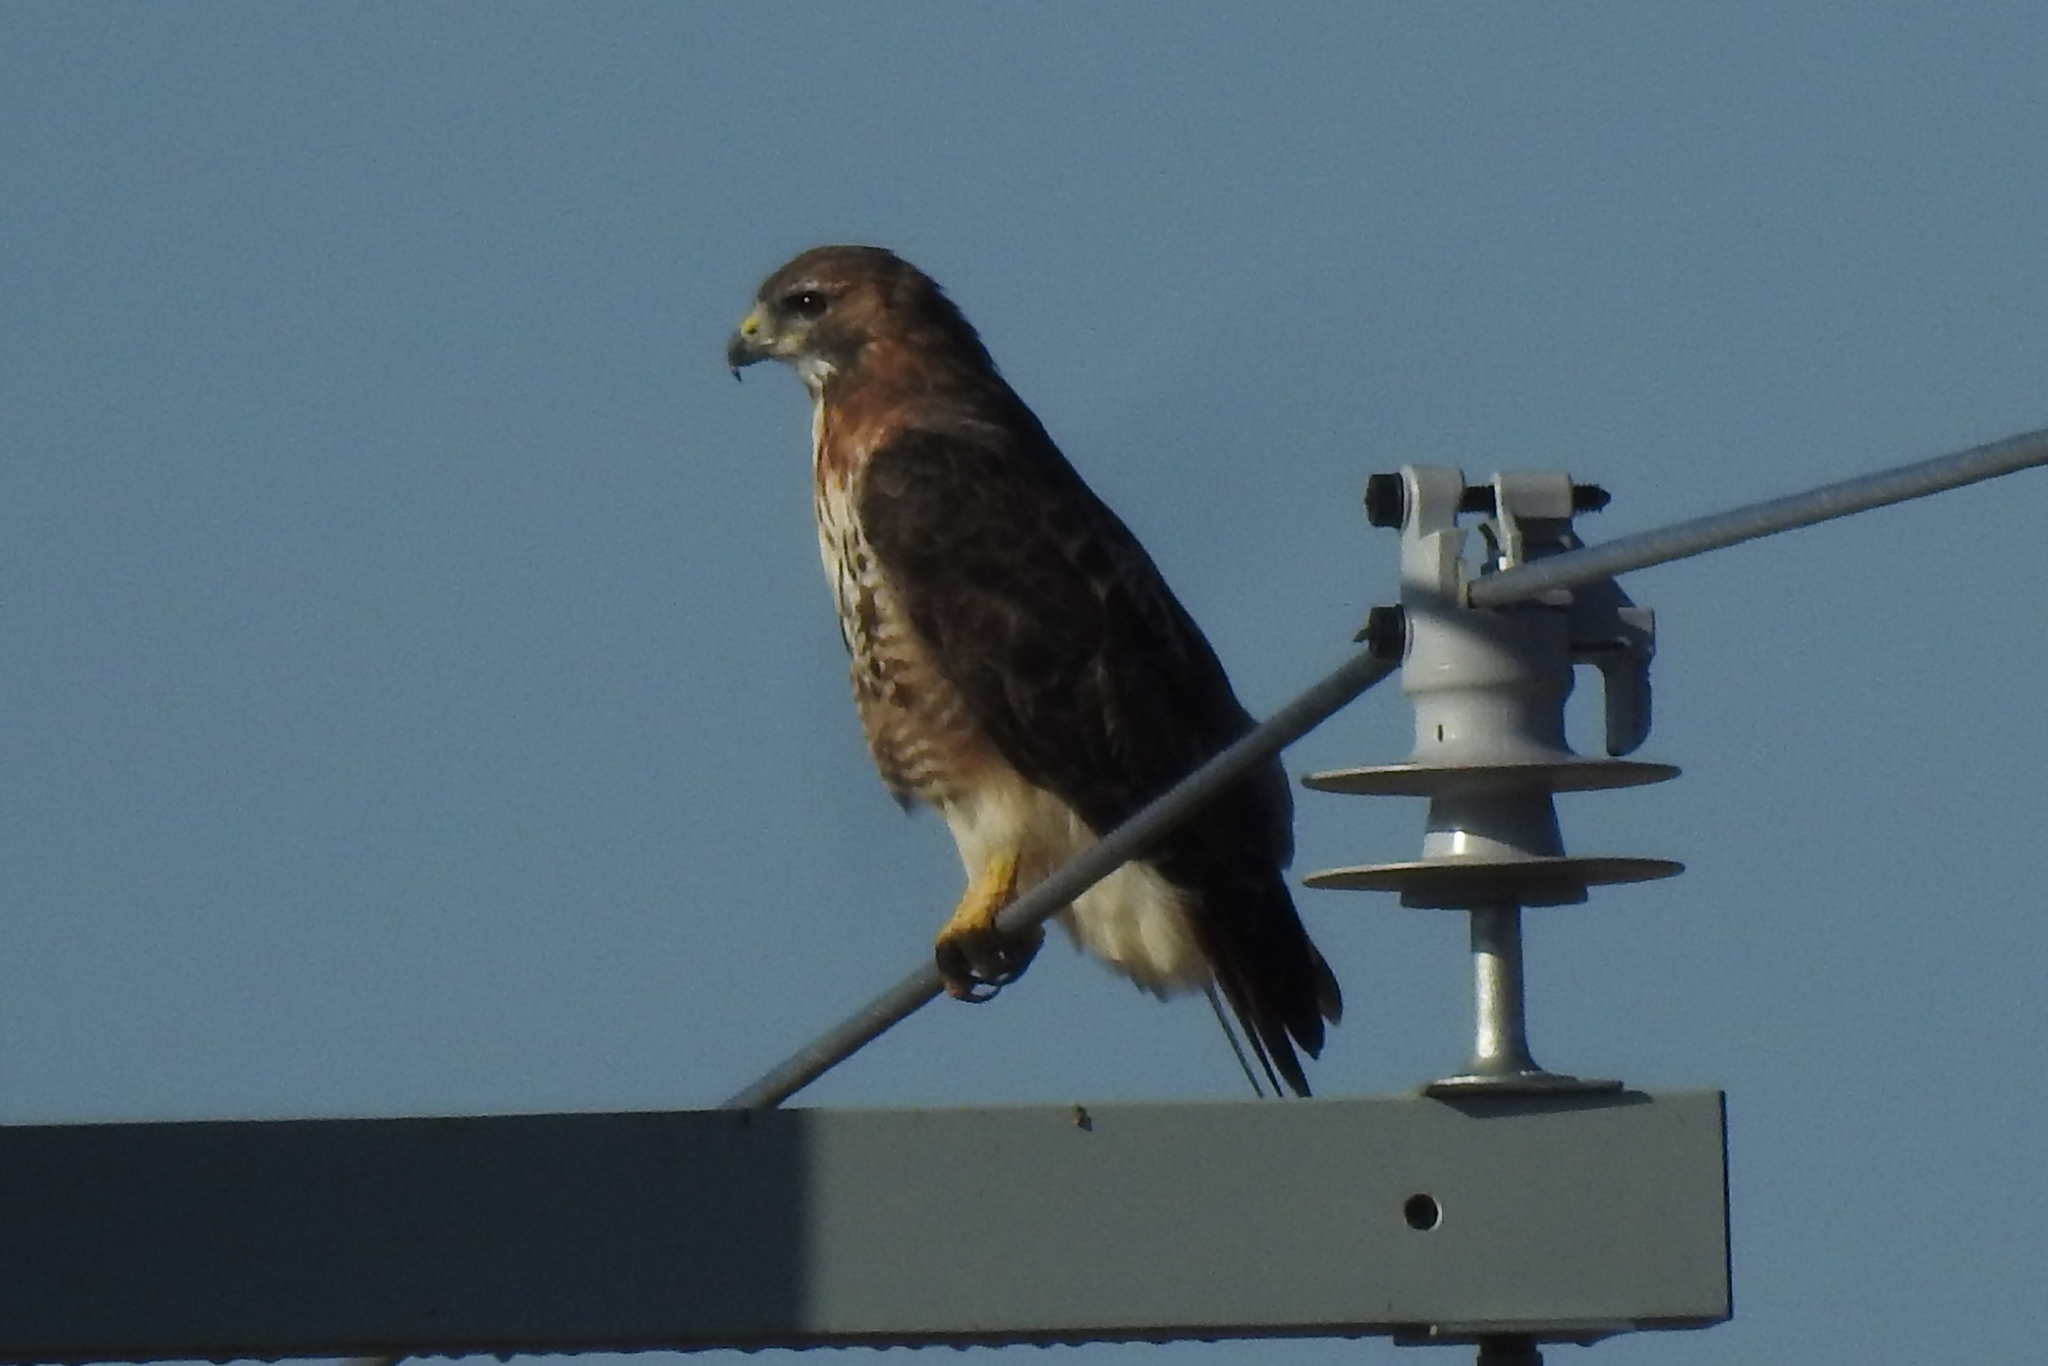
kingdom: Animalia
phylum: Chordata
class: Aves
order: Accipitriformes
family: Accipitridae
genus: Buteo
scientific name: Buteo jamaicensis
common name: Red-tailed hawk
